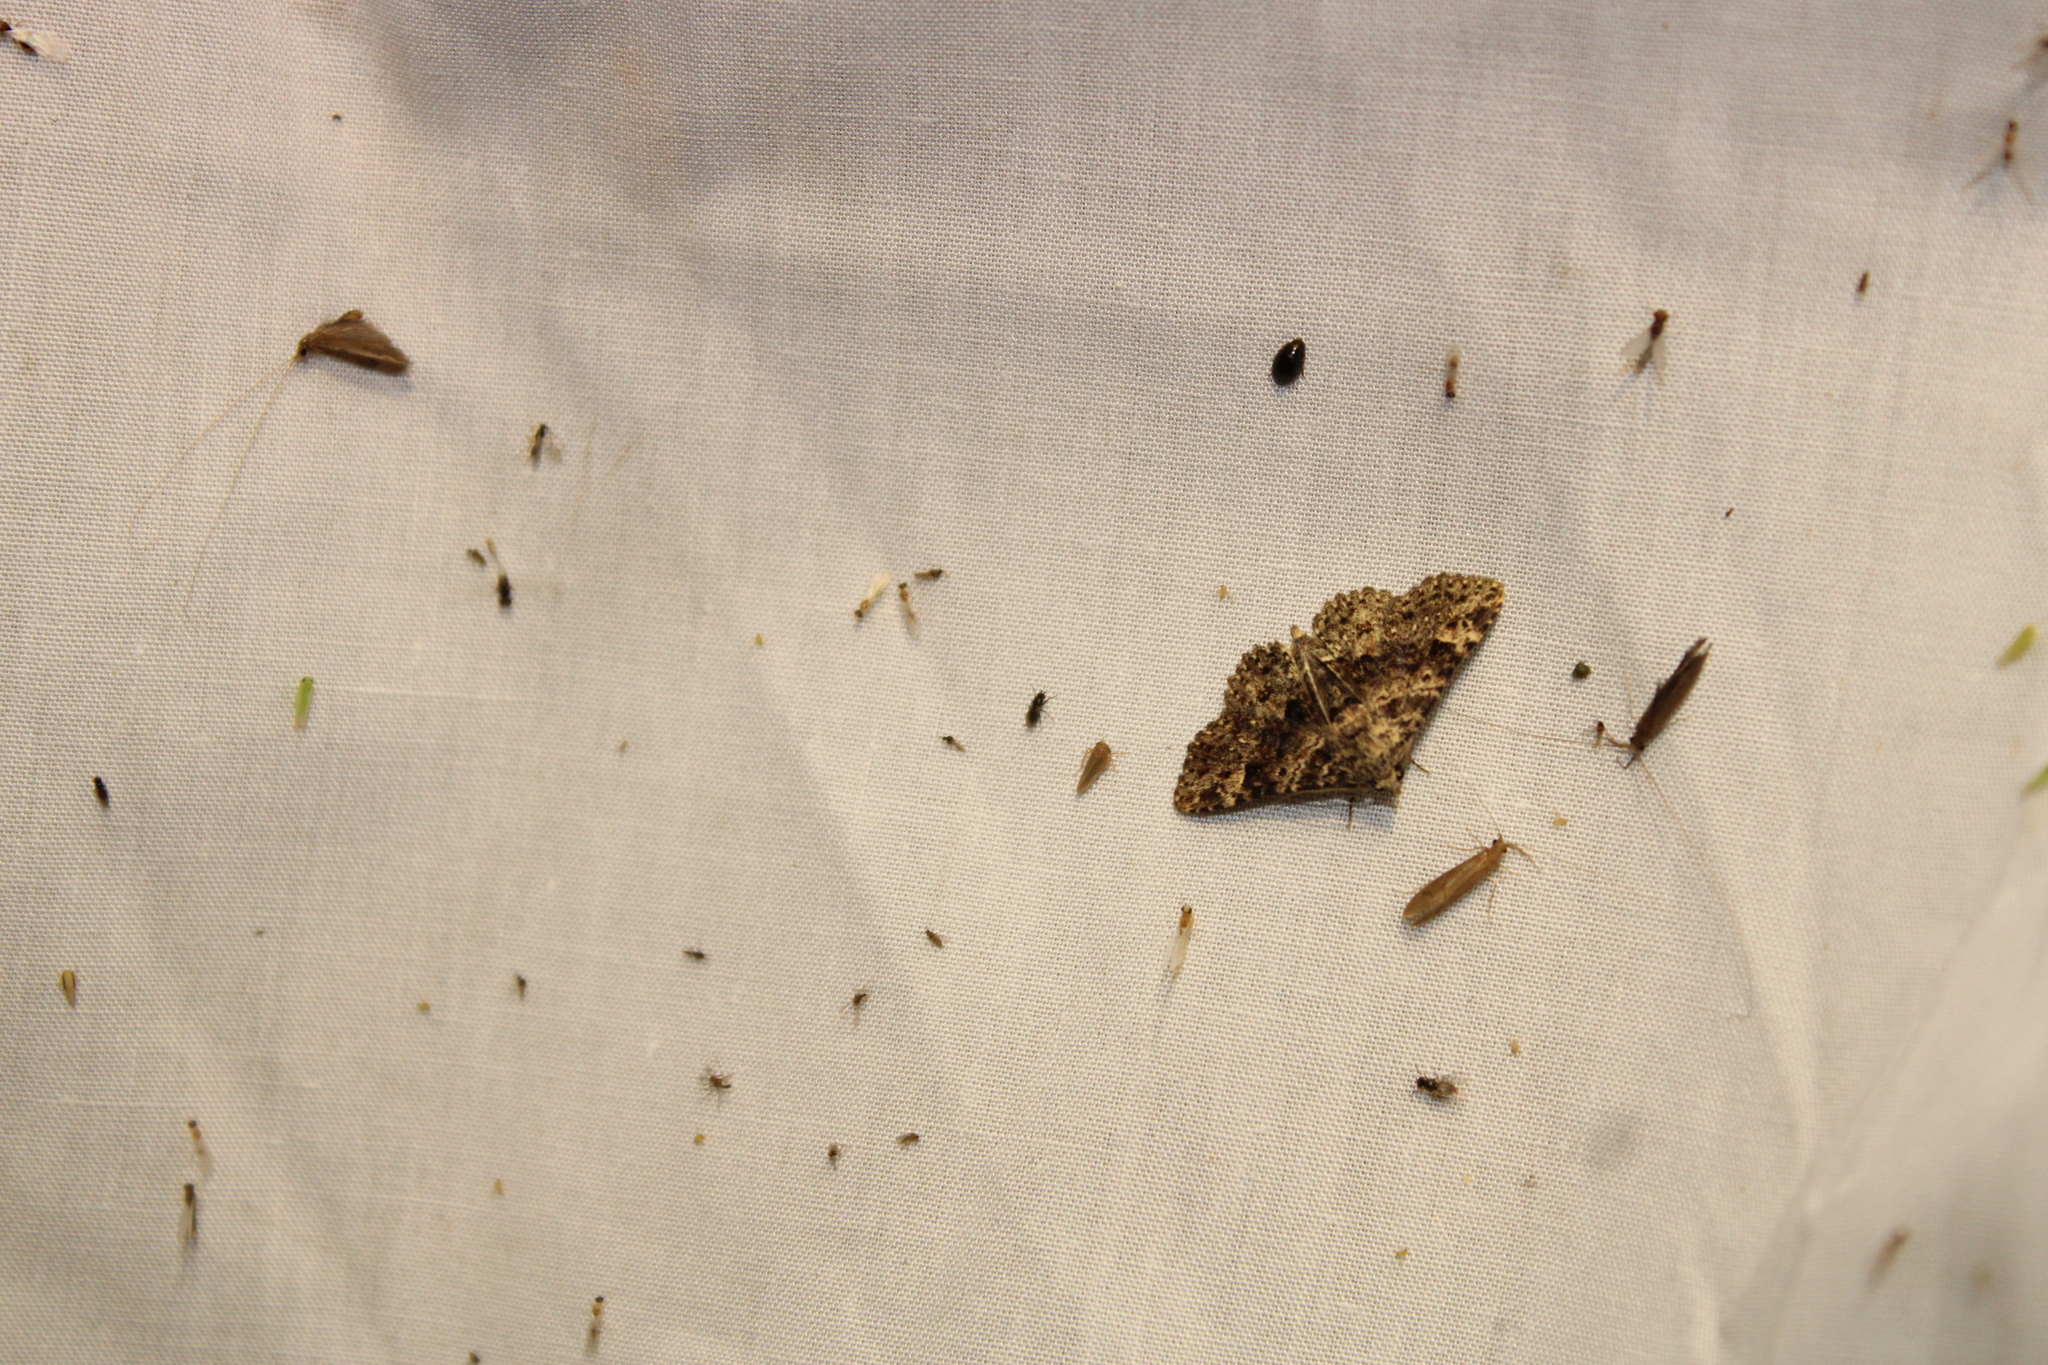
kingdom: Animalia
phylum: Arthropoda
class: Insecta
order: Lepidoptera
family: Erebidae
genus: Metalectra
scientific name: Metalectra discalis
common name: Common fungus moth
